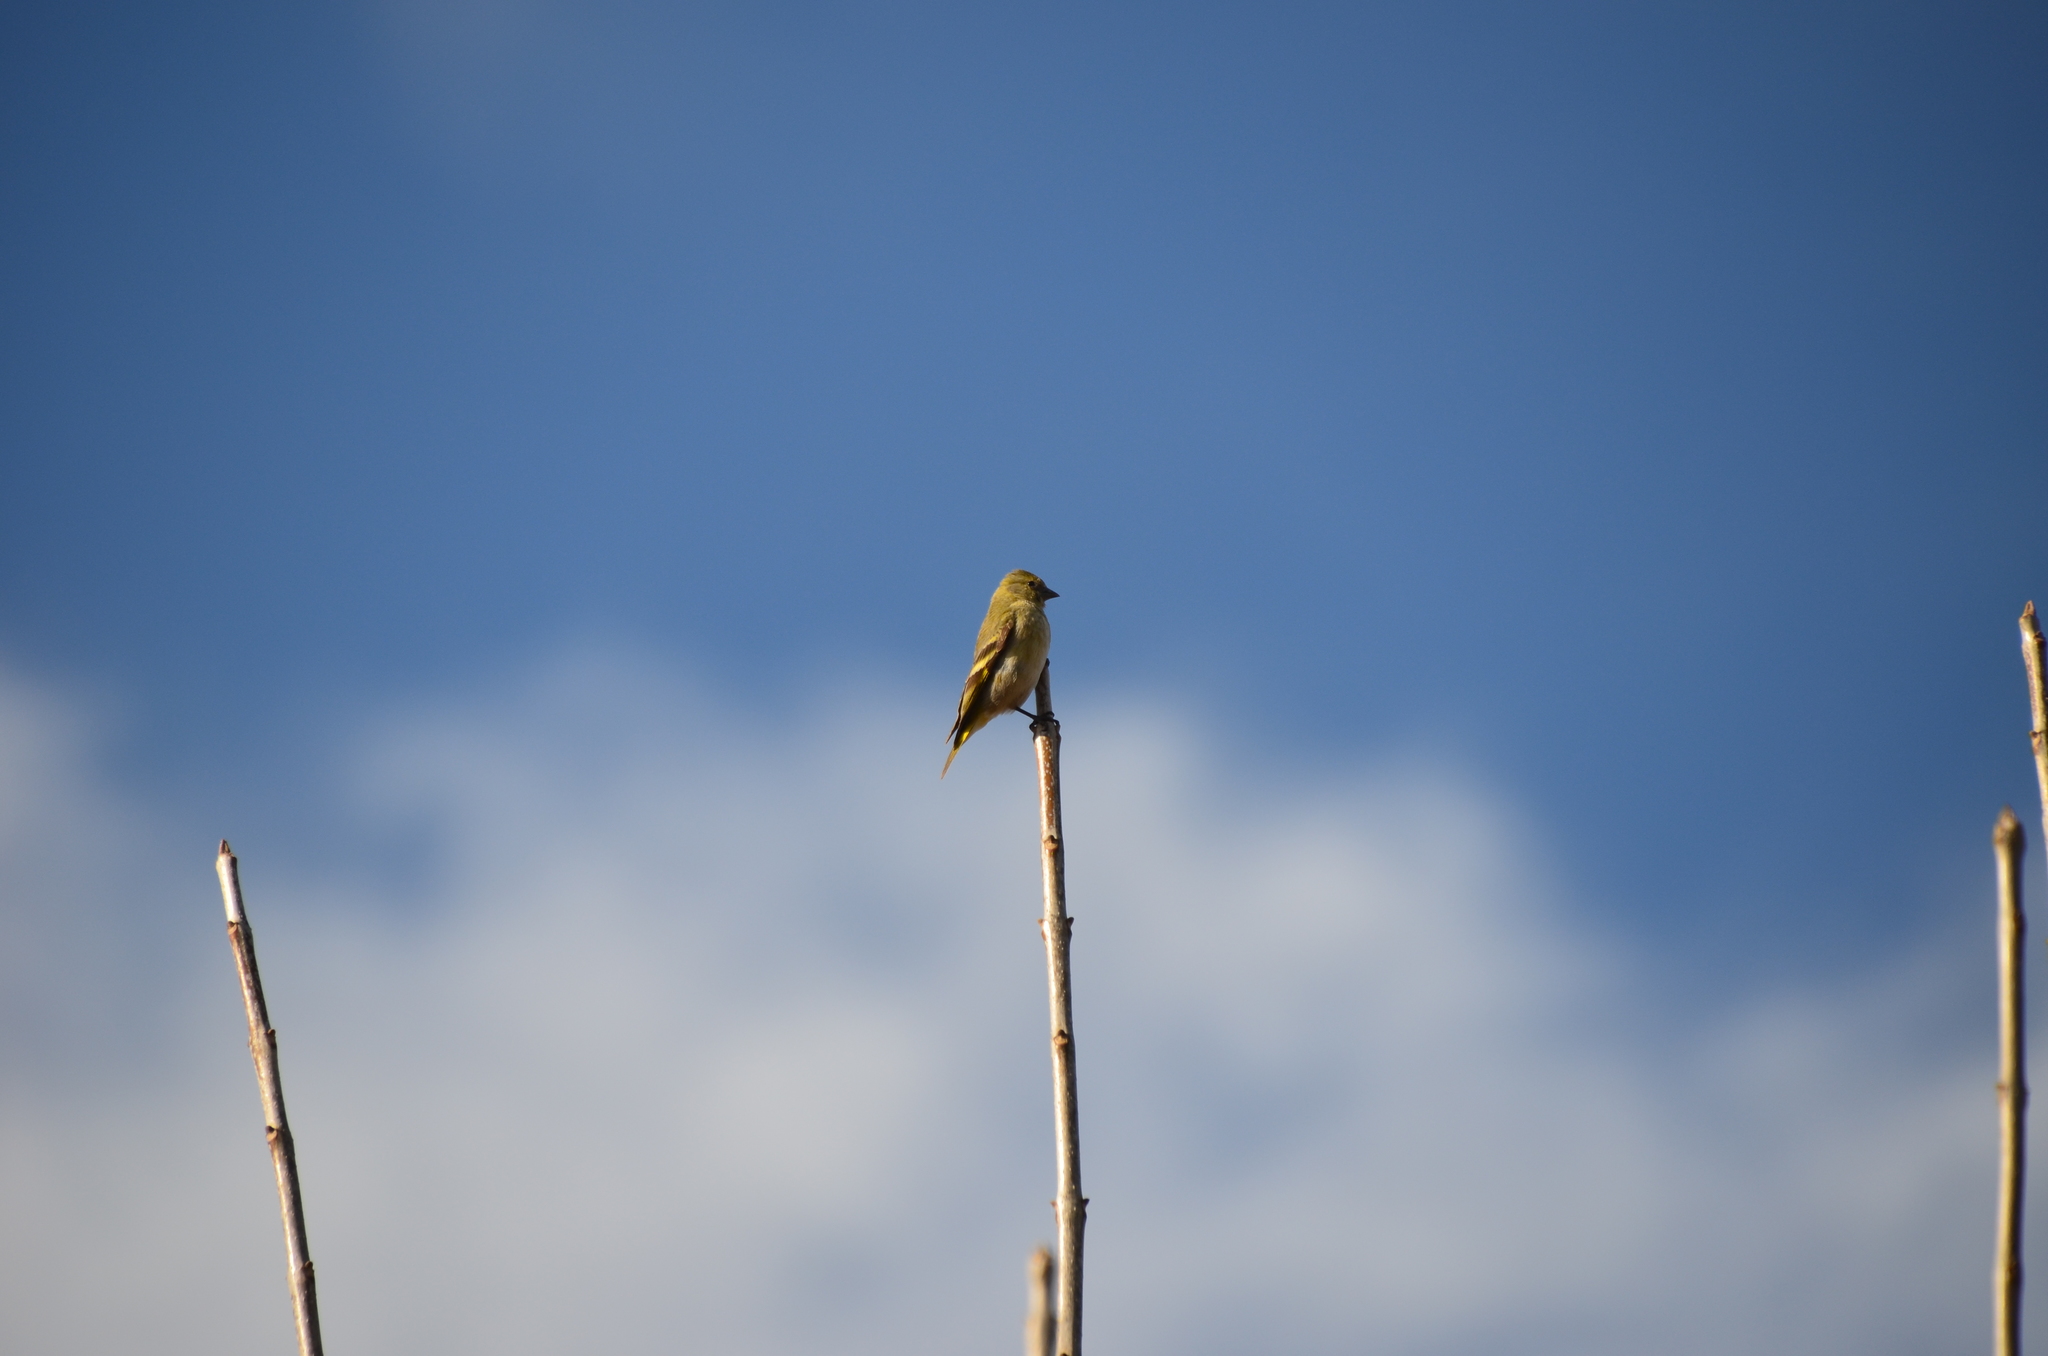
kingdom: Animalia
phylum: Chordata
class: Aves
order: Passeriformes
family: Fringillidae
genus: Spinus
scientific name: Spinus magellanicus
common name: Hooded siskin
